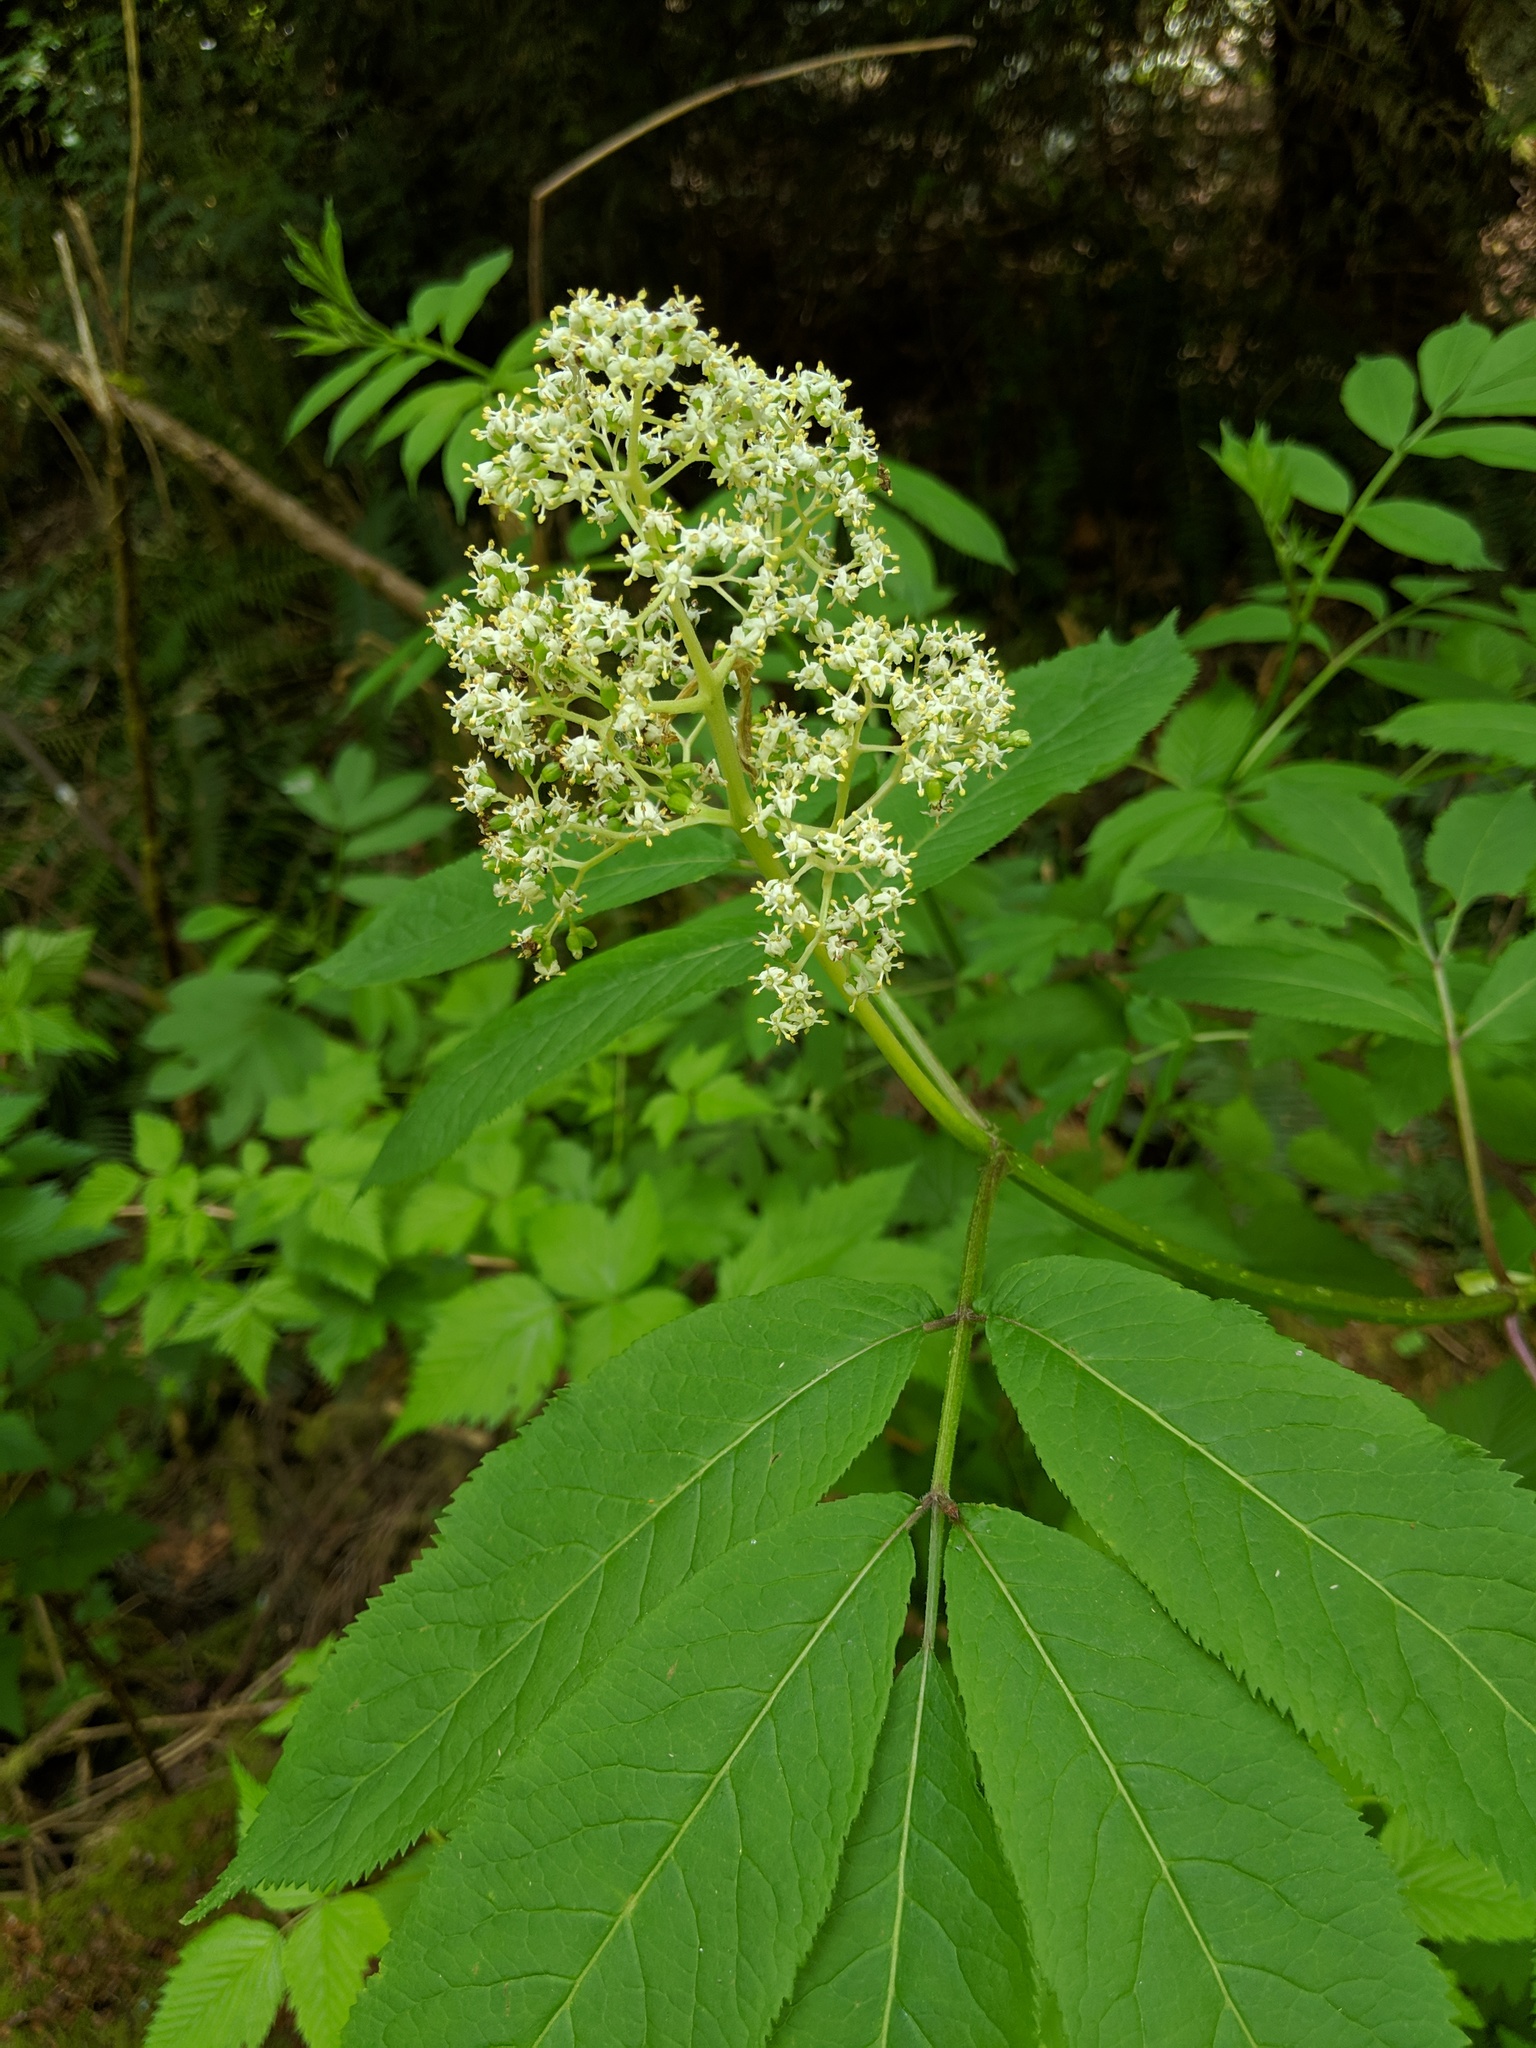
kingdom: Plantae
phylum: Tracheophyta
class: Magnoliopsida
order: Dipsacales
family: Viburnaceae
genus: Sambucus
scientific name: Sambucus racemosa
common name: Red-berried elder
